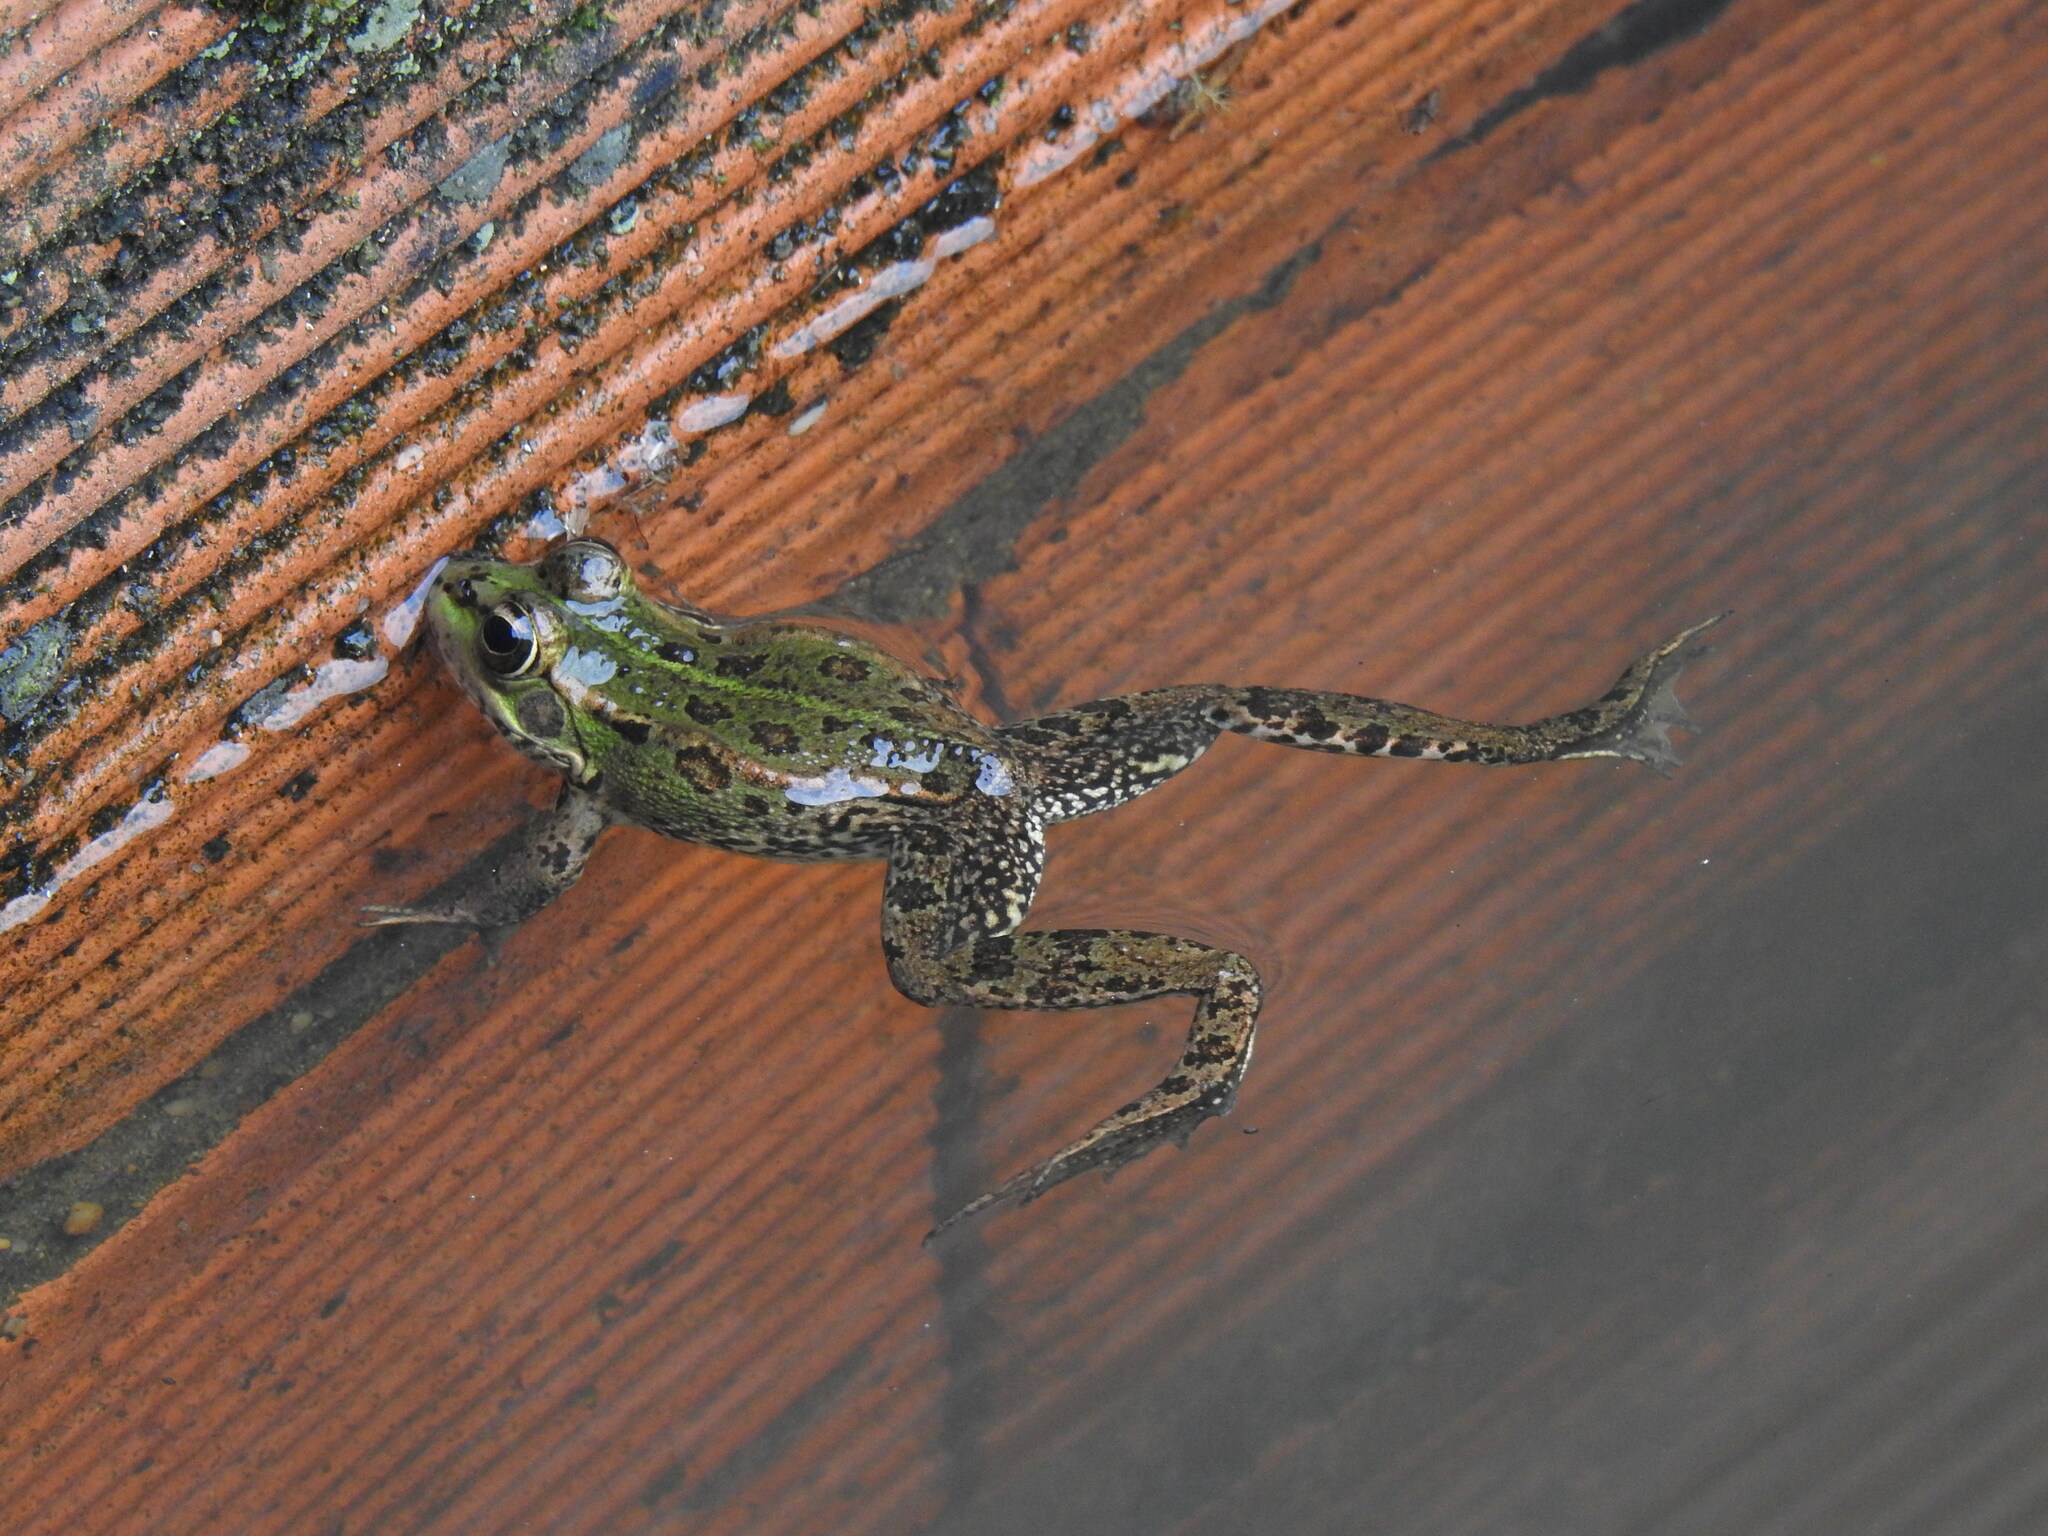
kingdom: Animalia
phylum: Chordata
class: Amphibia
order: Anura
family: Ranidae
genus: Pelophylax
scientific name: Pelophylax perezi
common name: Perez's frog
